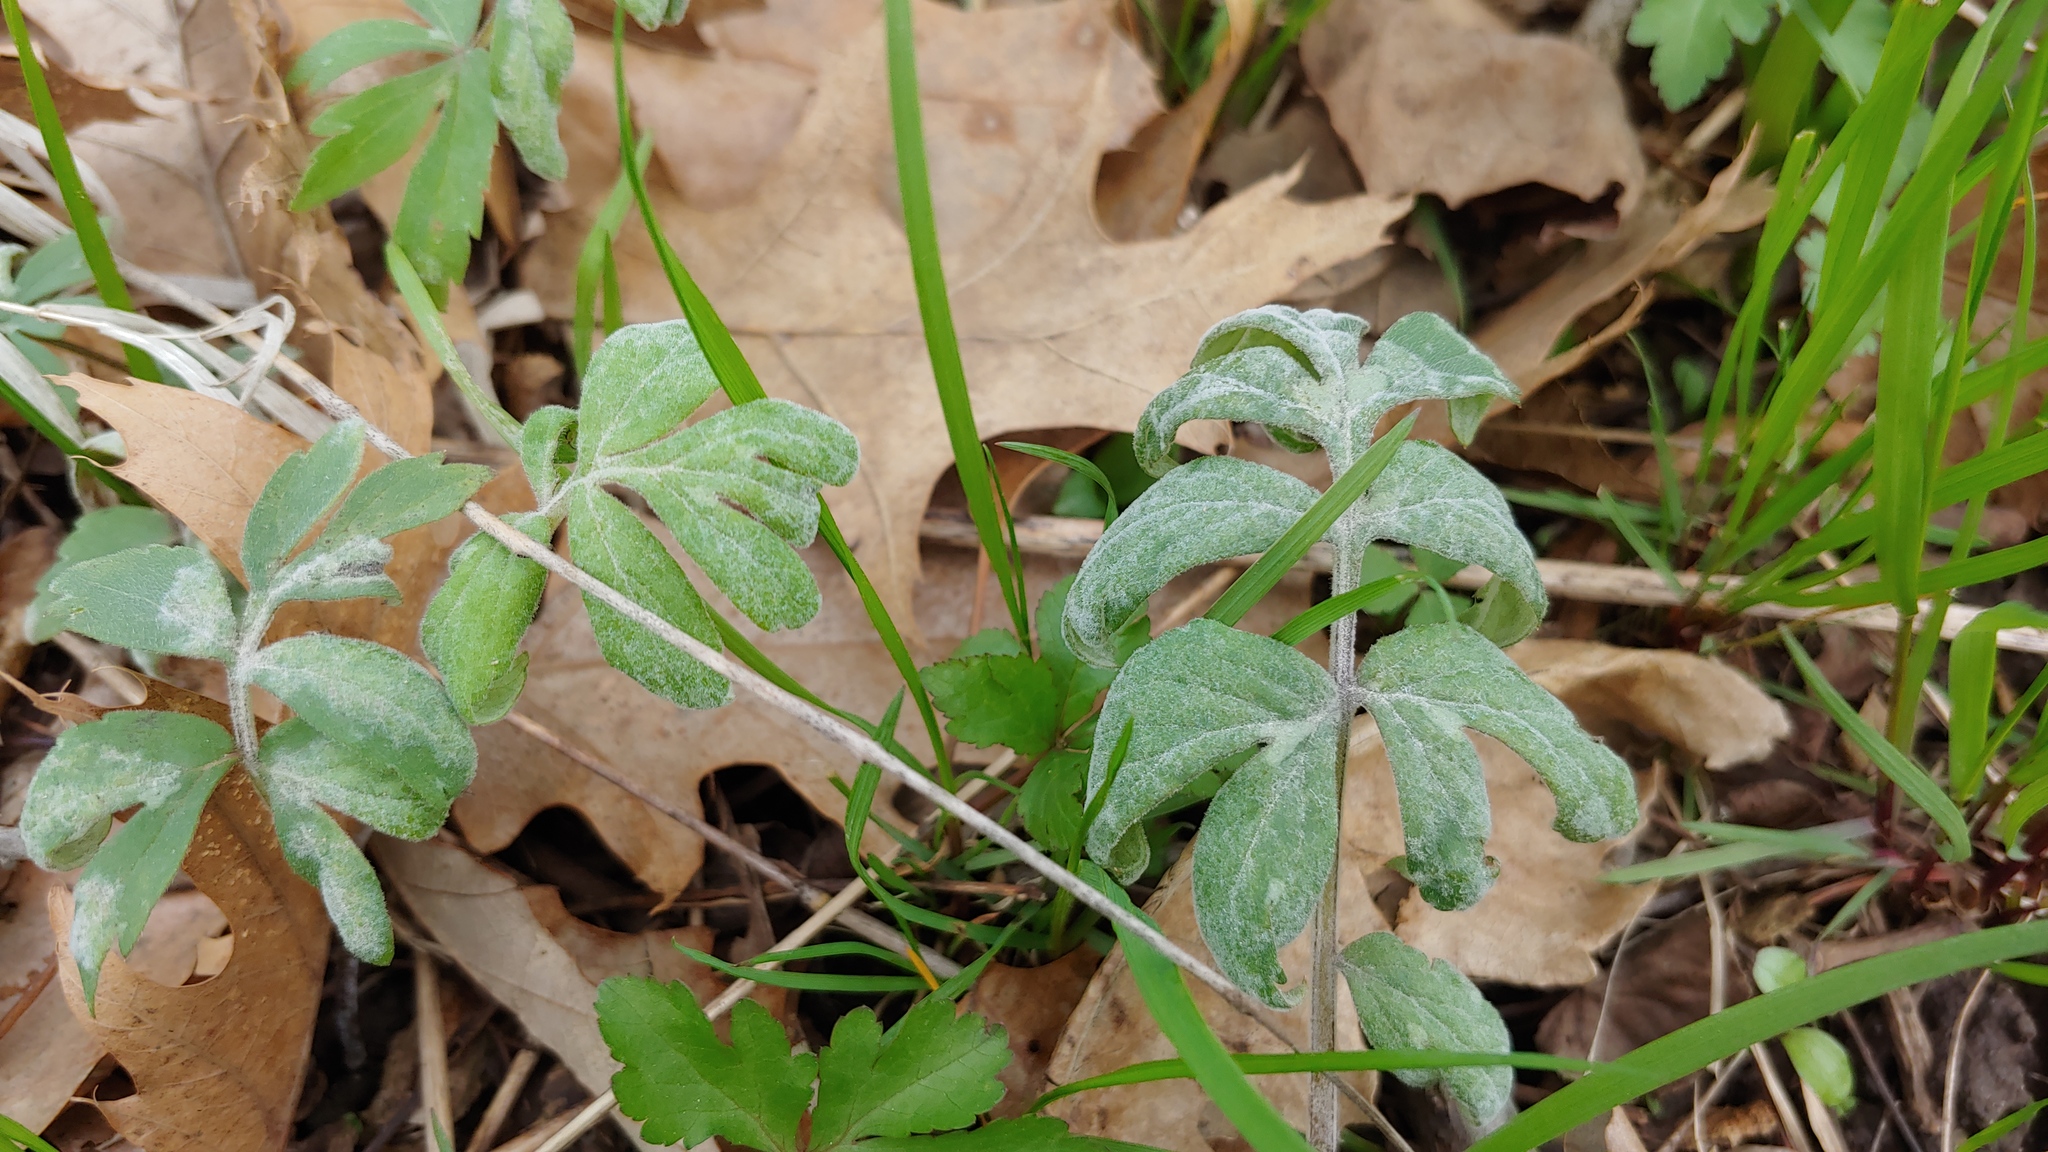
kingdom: Fungi
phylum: Ascomycota
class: Leotiomycetes
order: Helotiales
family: Erysiphaceae
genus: Golovinomyces
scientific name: Golovinomyces hydrophyllacearum
